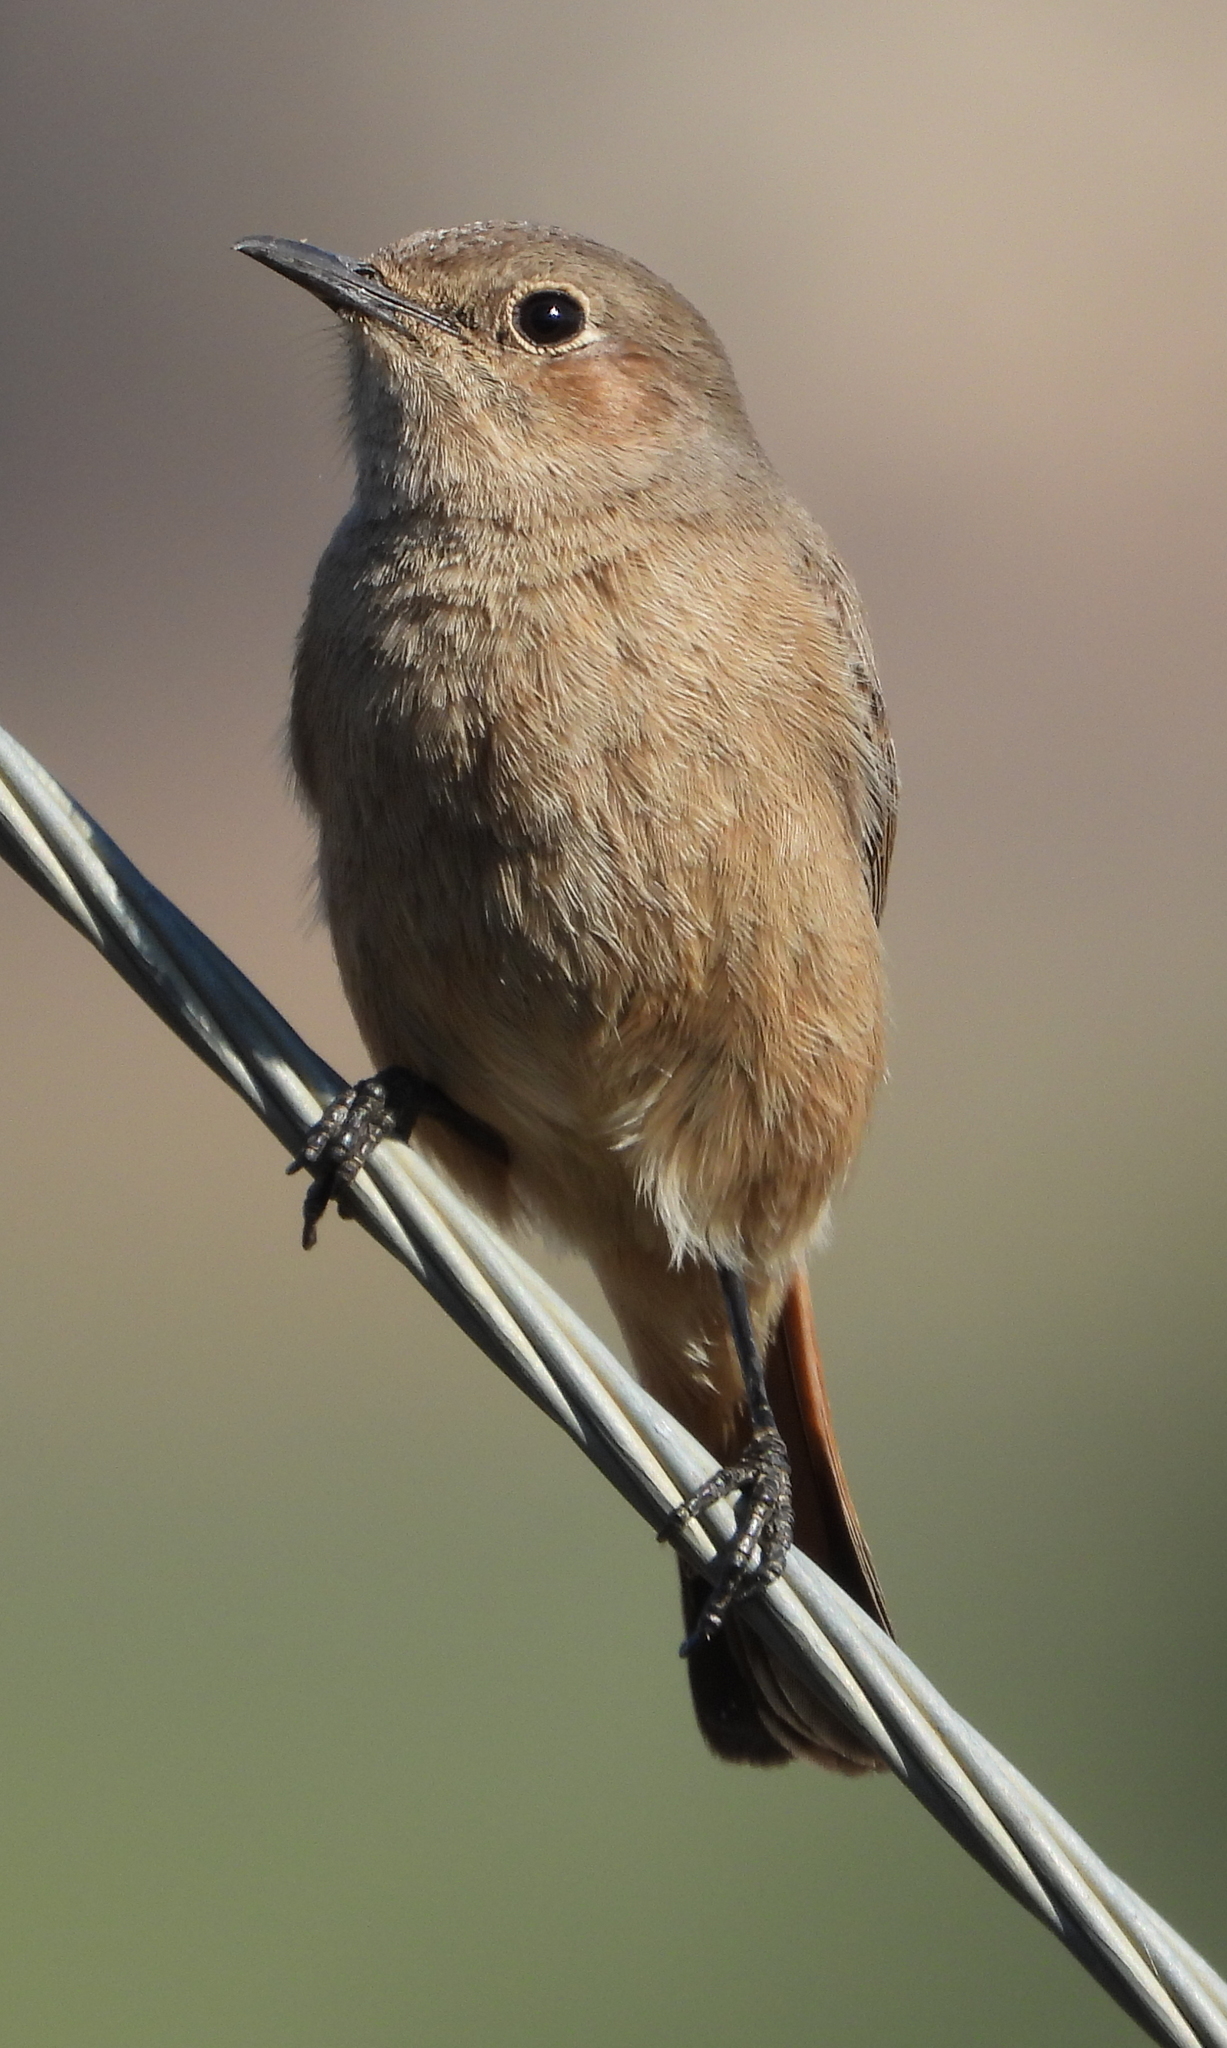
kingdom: Animalia
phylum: Chordata
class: Aves
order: Passeriformes
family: Muscicapidae
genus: Oenanthe
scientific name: Oenanthe familiaris
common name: Familiar chat
